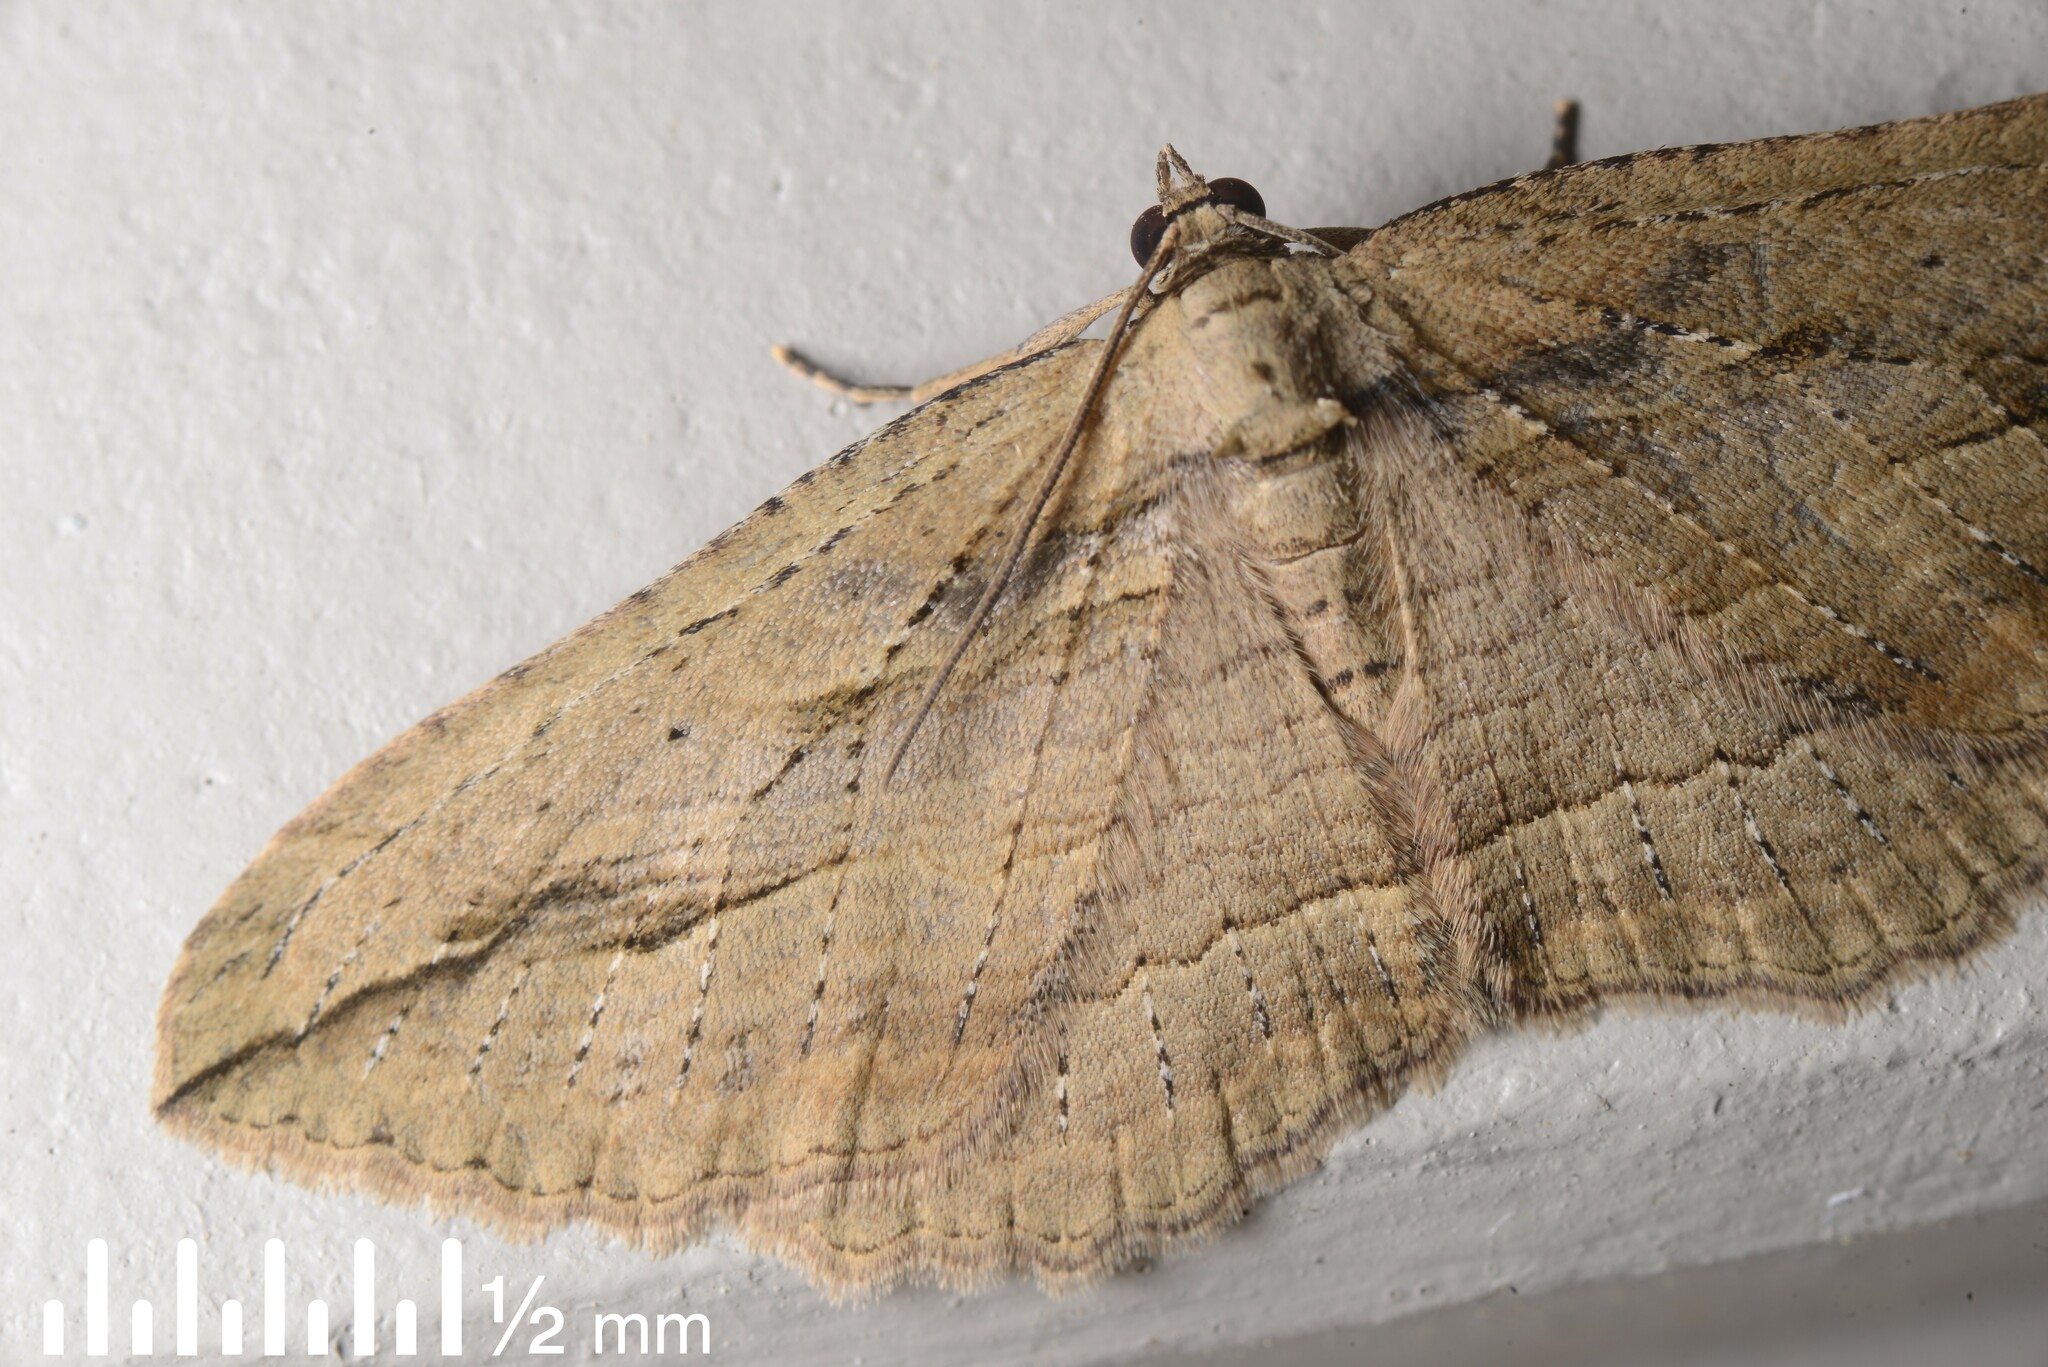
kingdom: Animalia
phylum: Arthropoda
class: Insecta
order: Lepidoptera
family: Geometridae
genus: Austrocidaria
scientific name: Austrocidaria gobiata
